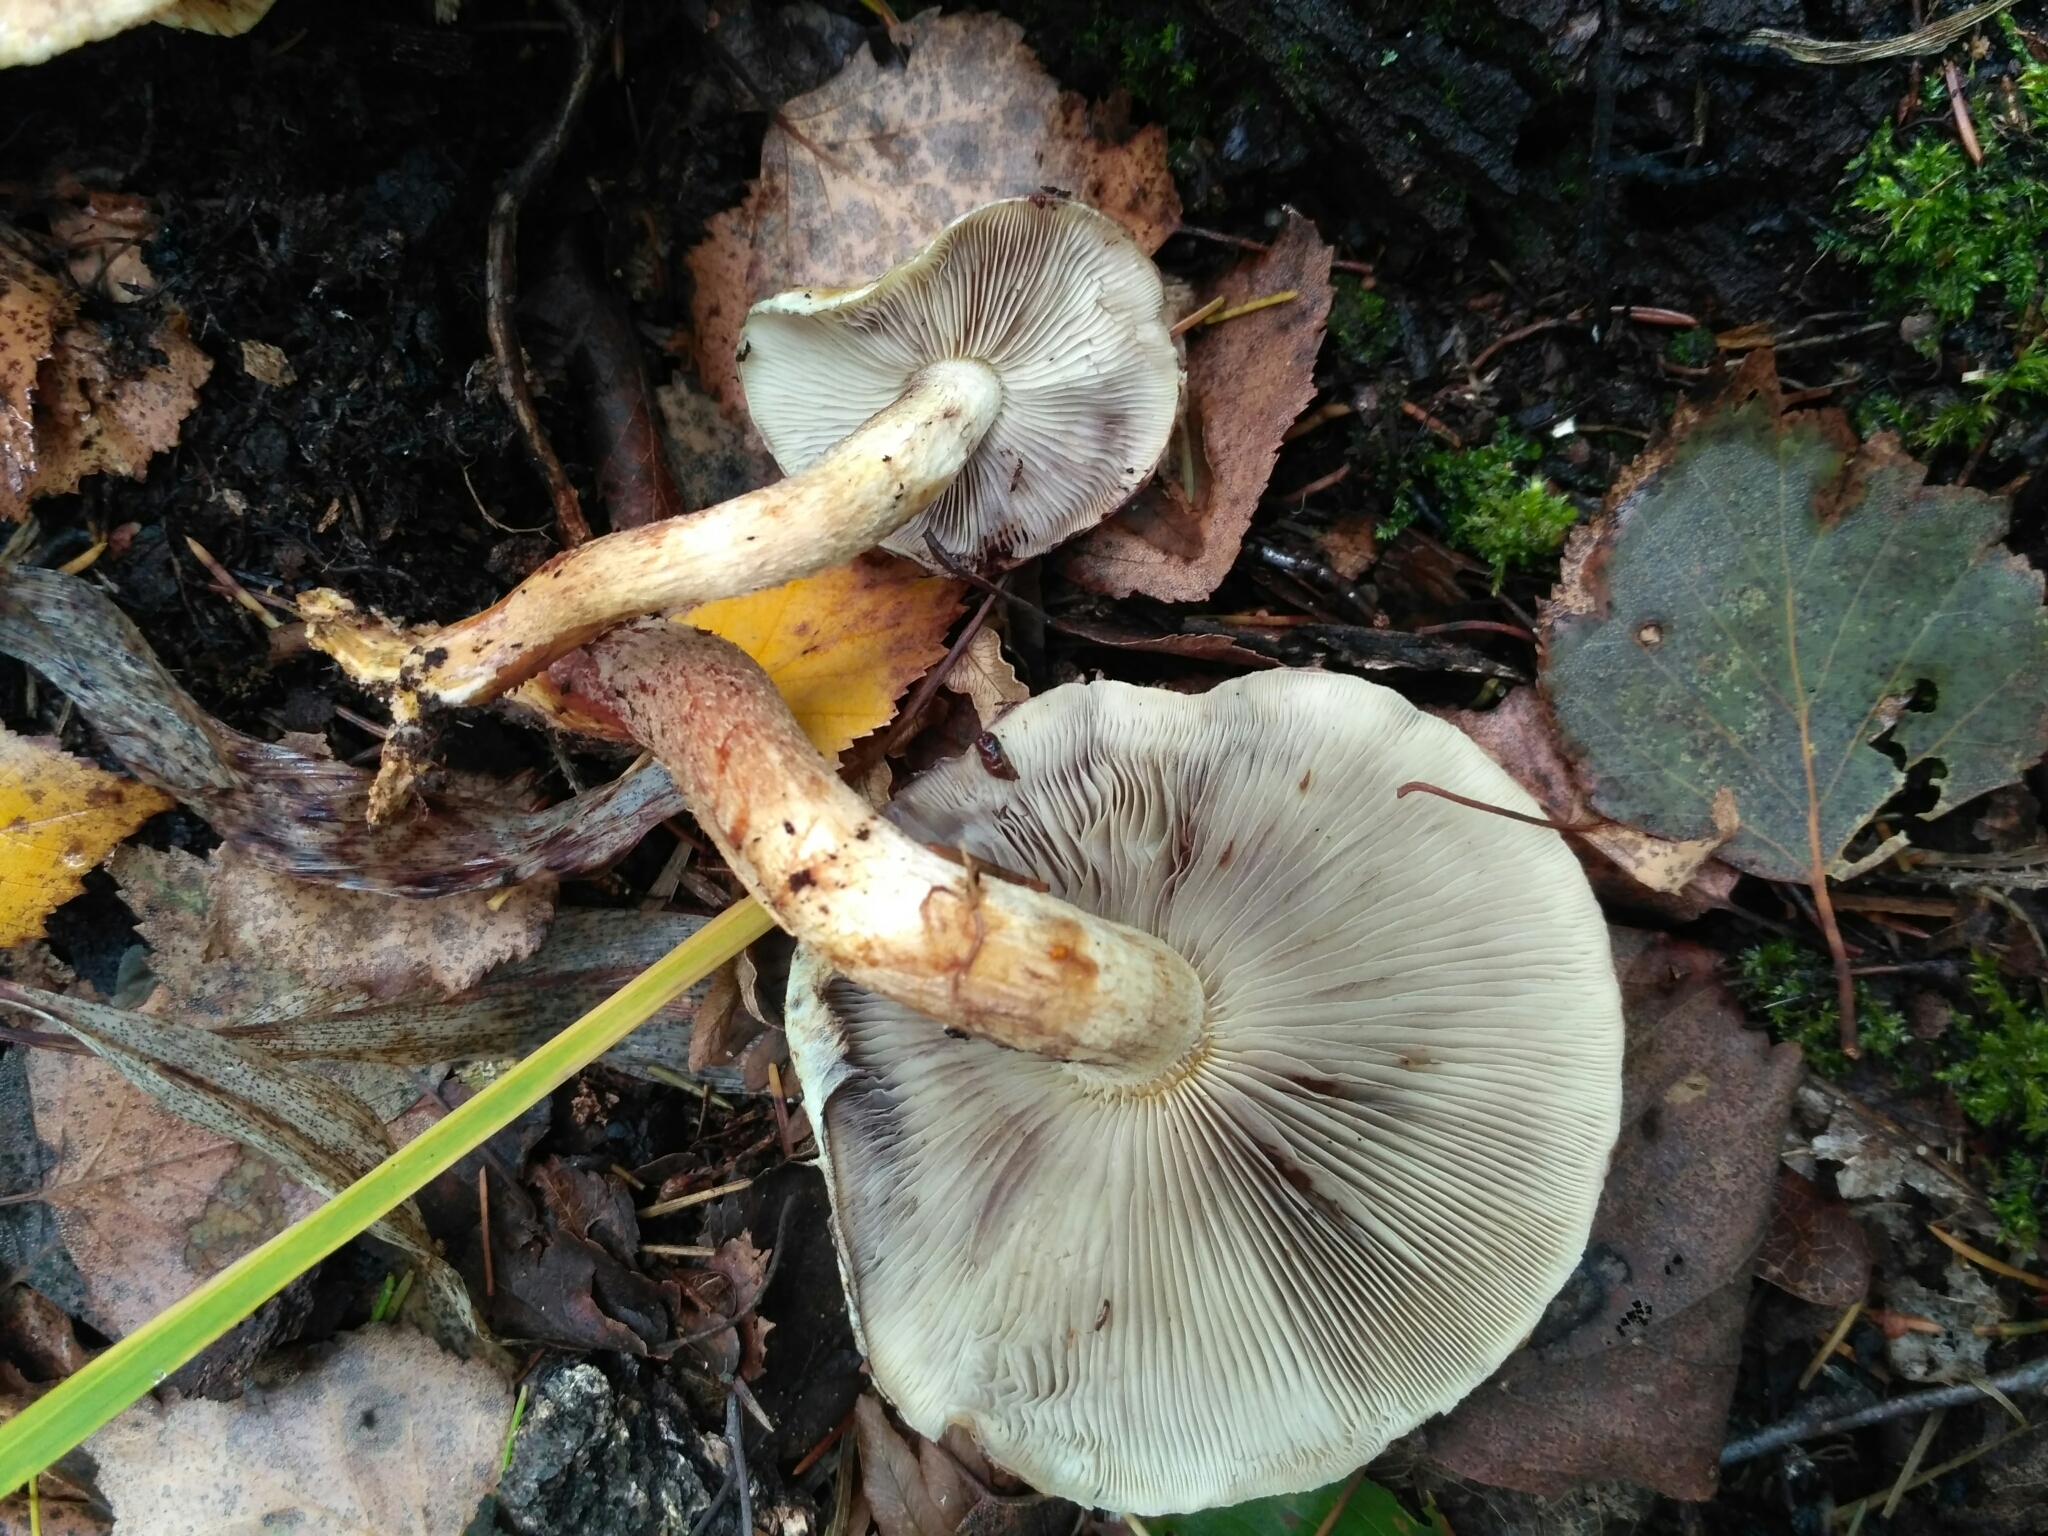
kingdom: Fungi
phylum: Basidiomycota
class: Agaricomycetes
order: Agaricales
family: Strophariaceae
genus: Hypholoma
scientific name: Hypholoma lateritium
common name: Brick caps
